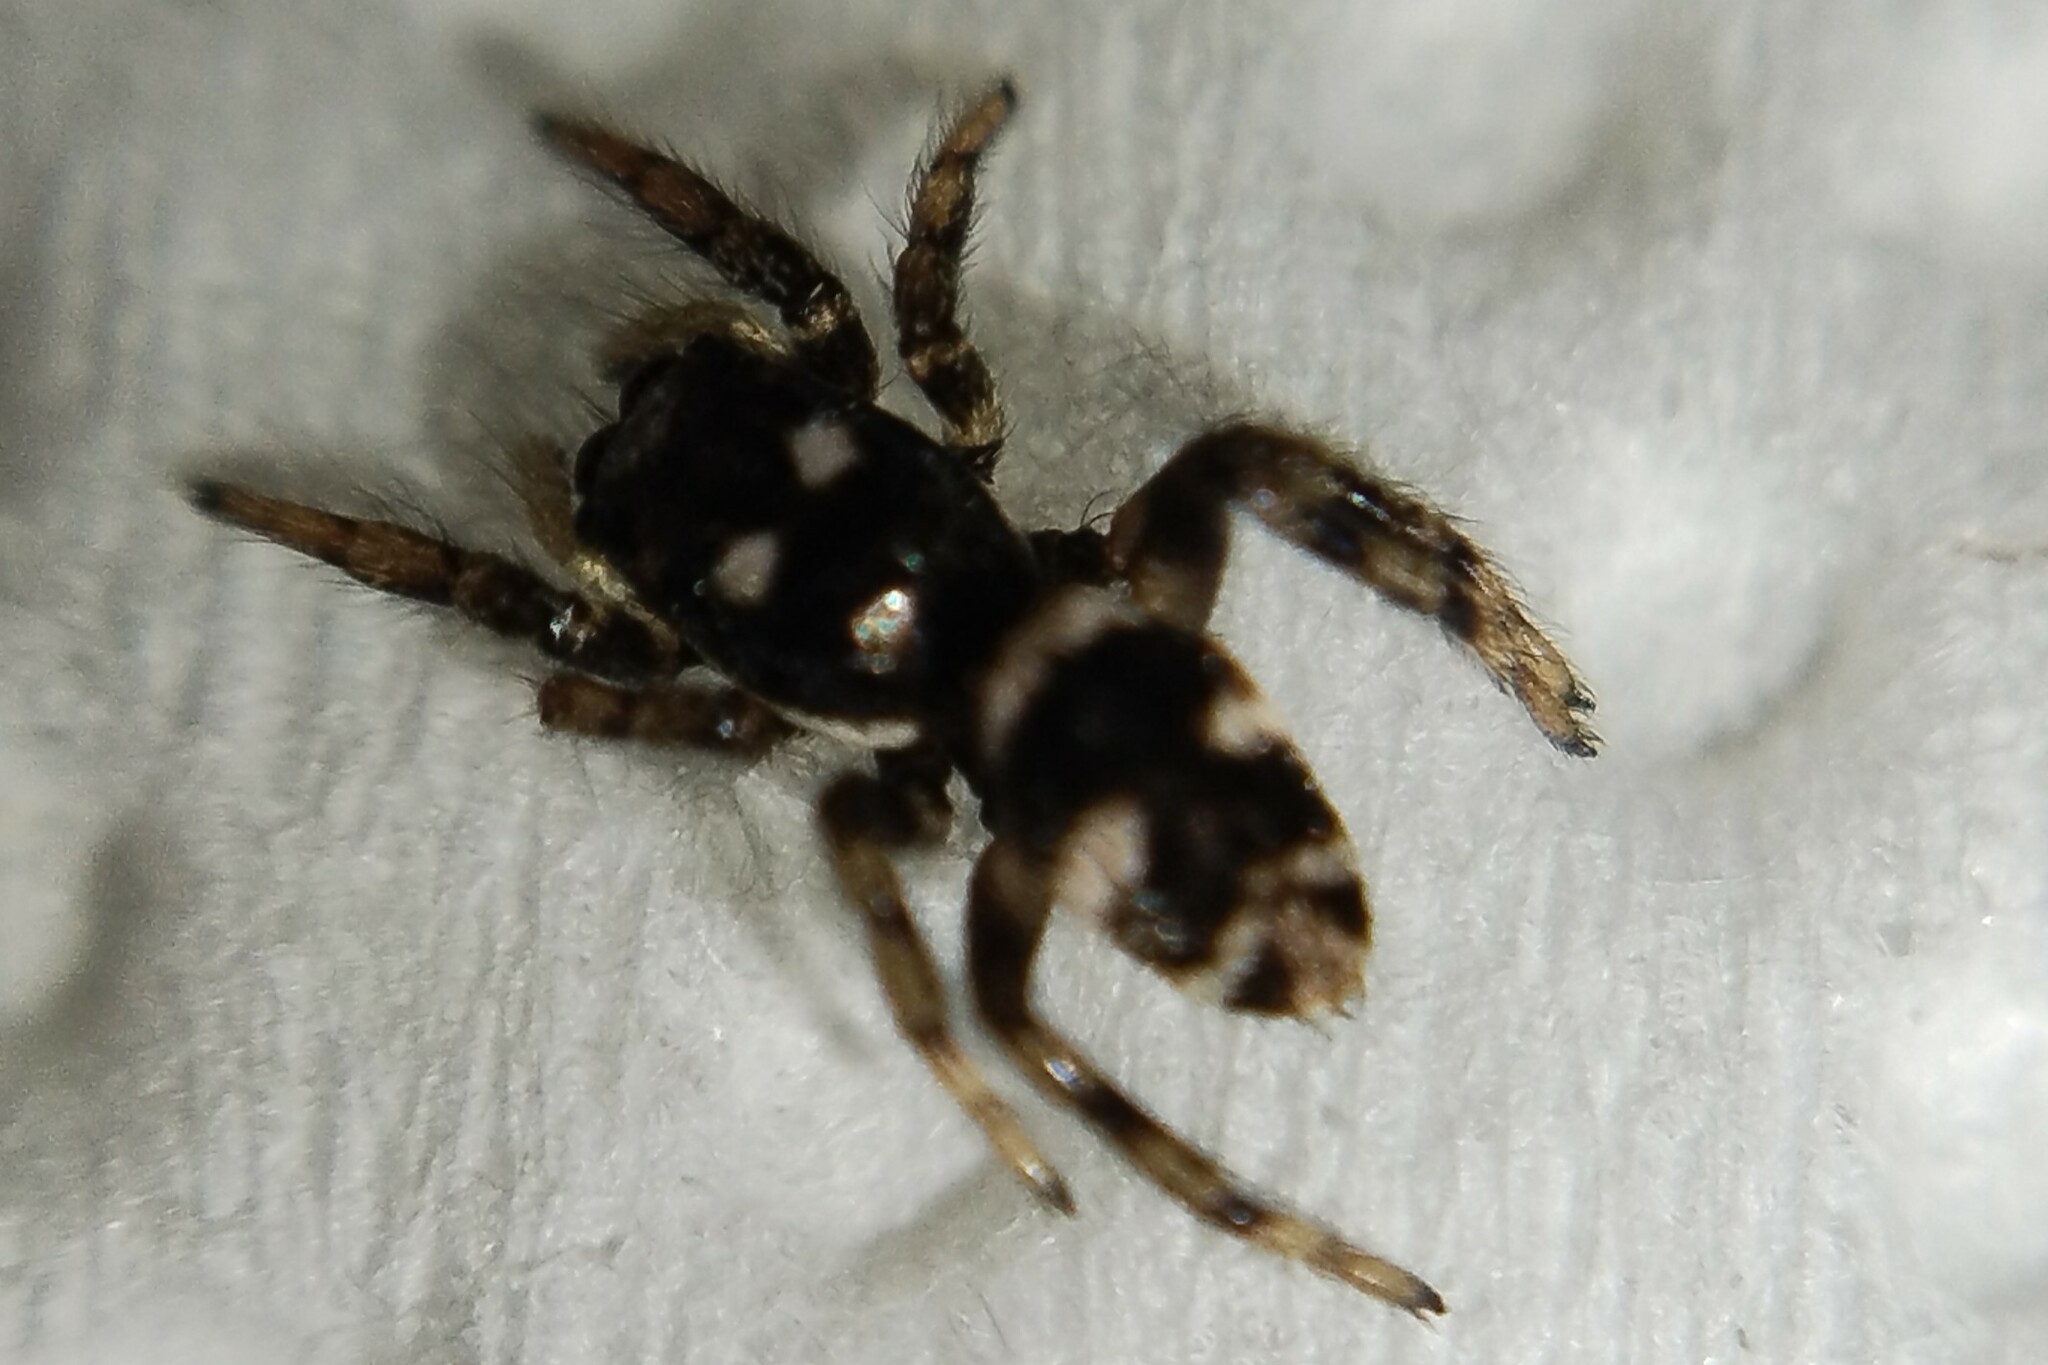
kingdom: Animalia
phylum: Arthropoda
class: Arachnida
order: Araneae
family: Salticidae
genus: Salticus
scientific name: Salticus scenicus
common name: Zebra jumper
